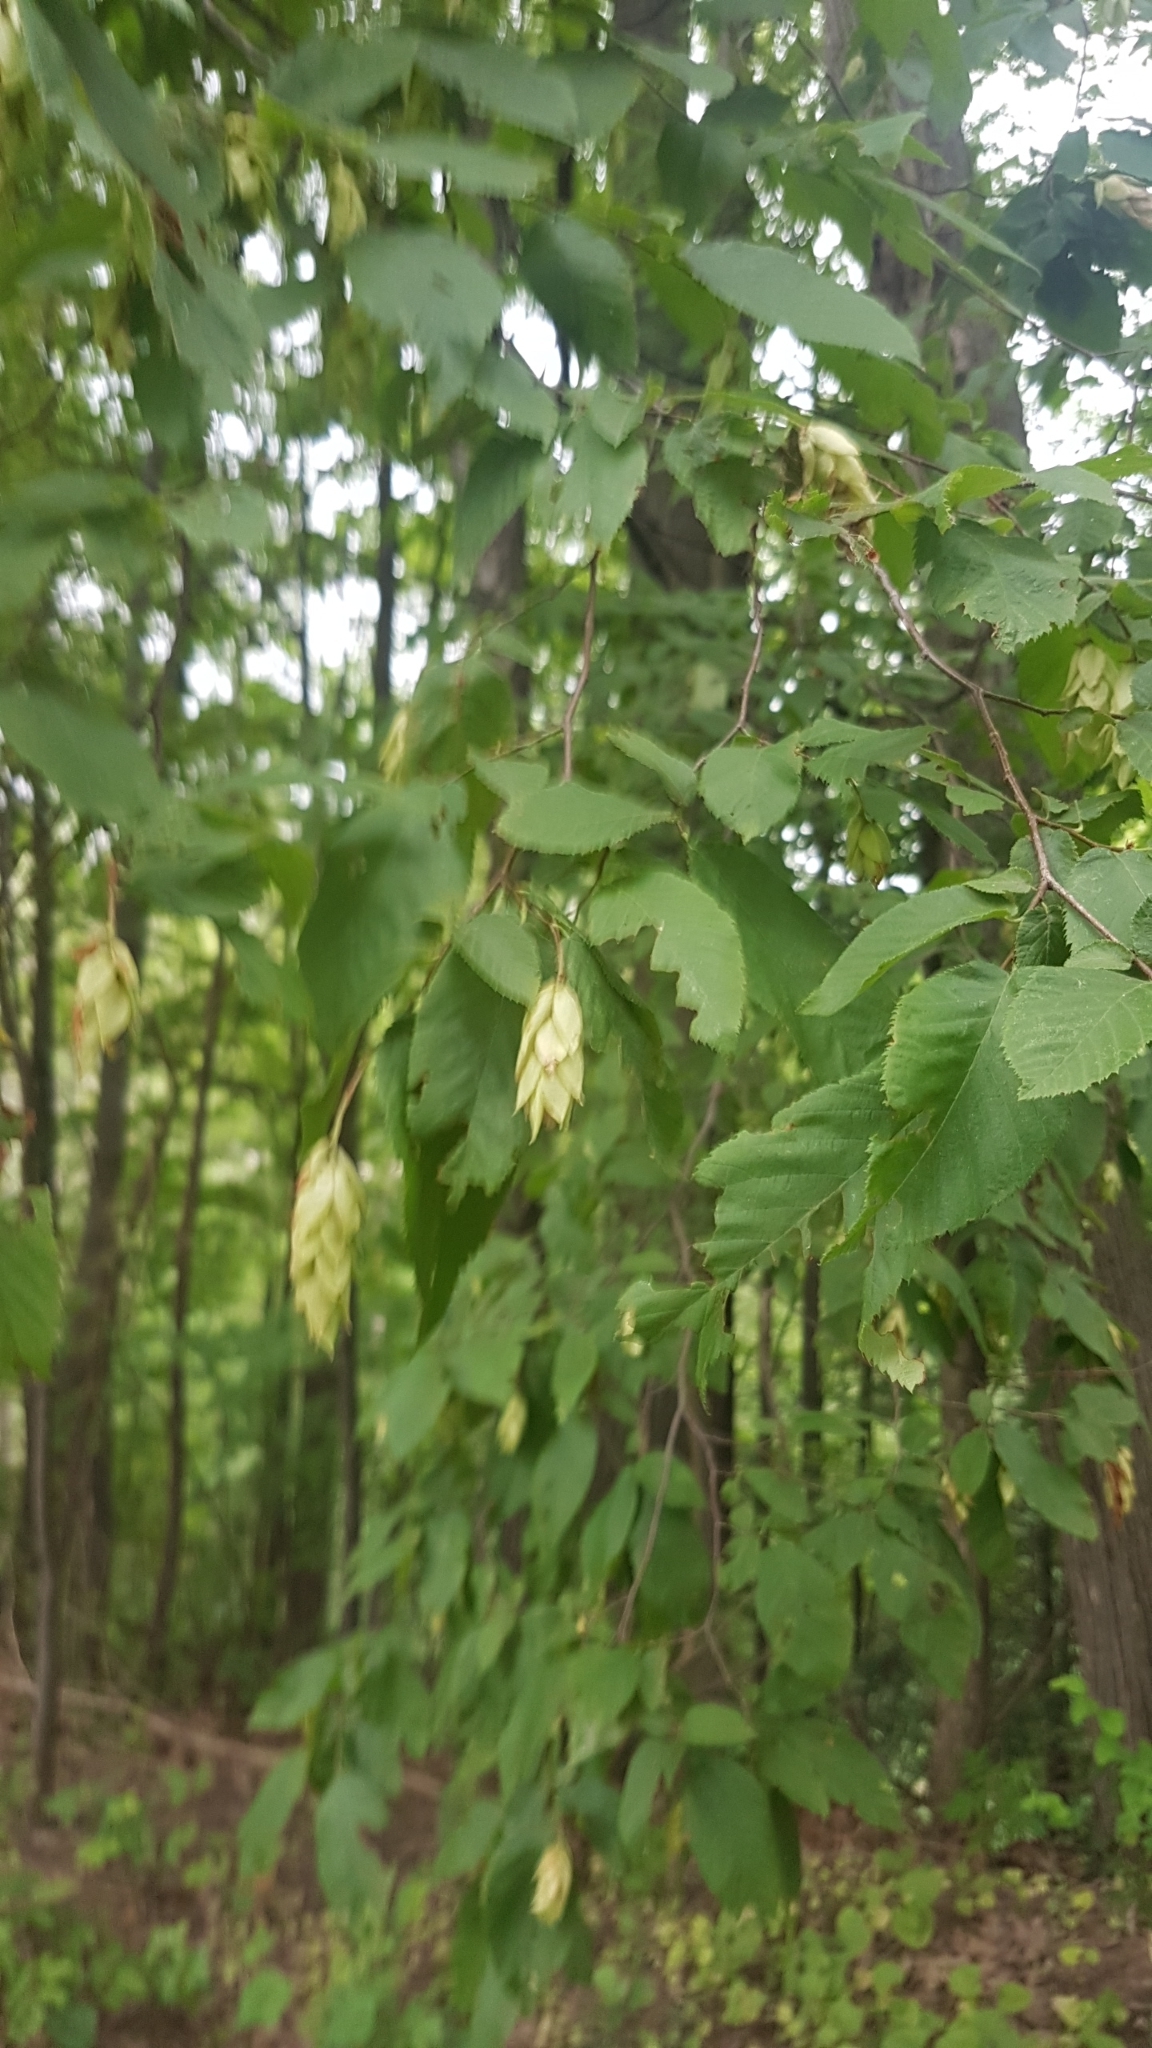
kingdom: Plantae
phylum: Tracheophyta
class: Magnoliopsida
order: Fagales
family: Betulaceae
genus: Ostrya
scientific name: Ostrya virginiana
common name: Ironwood
